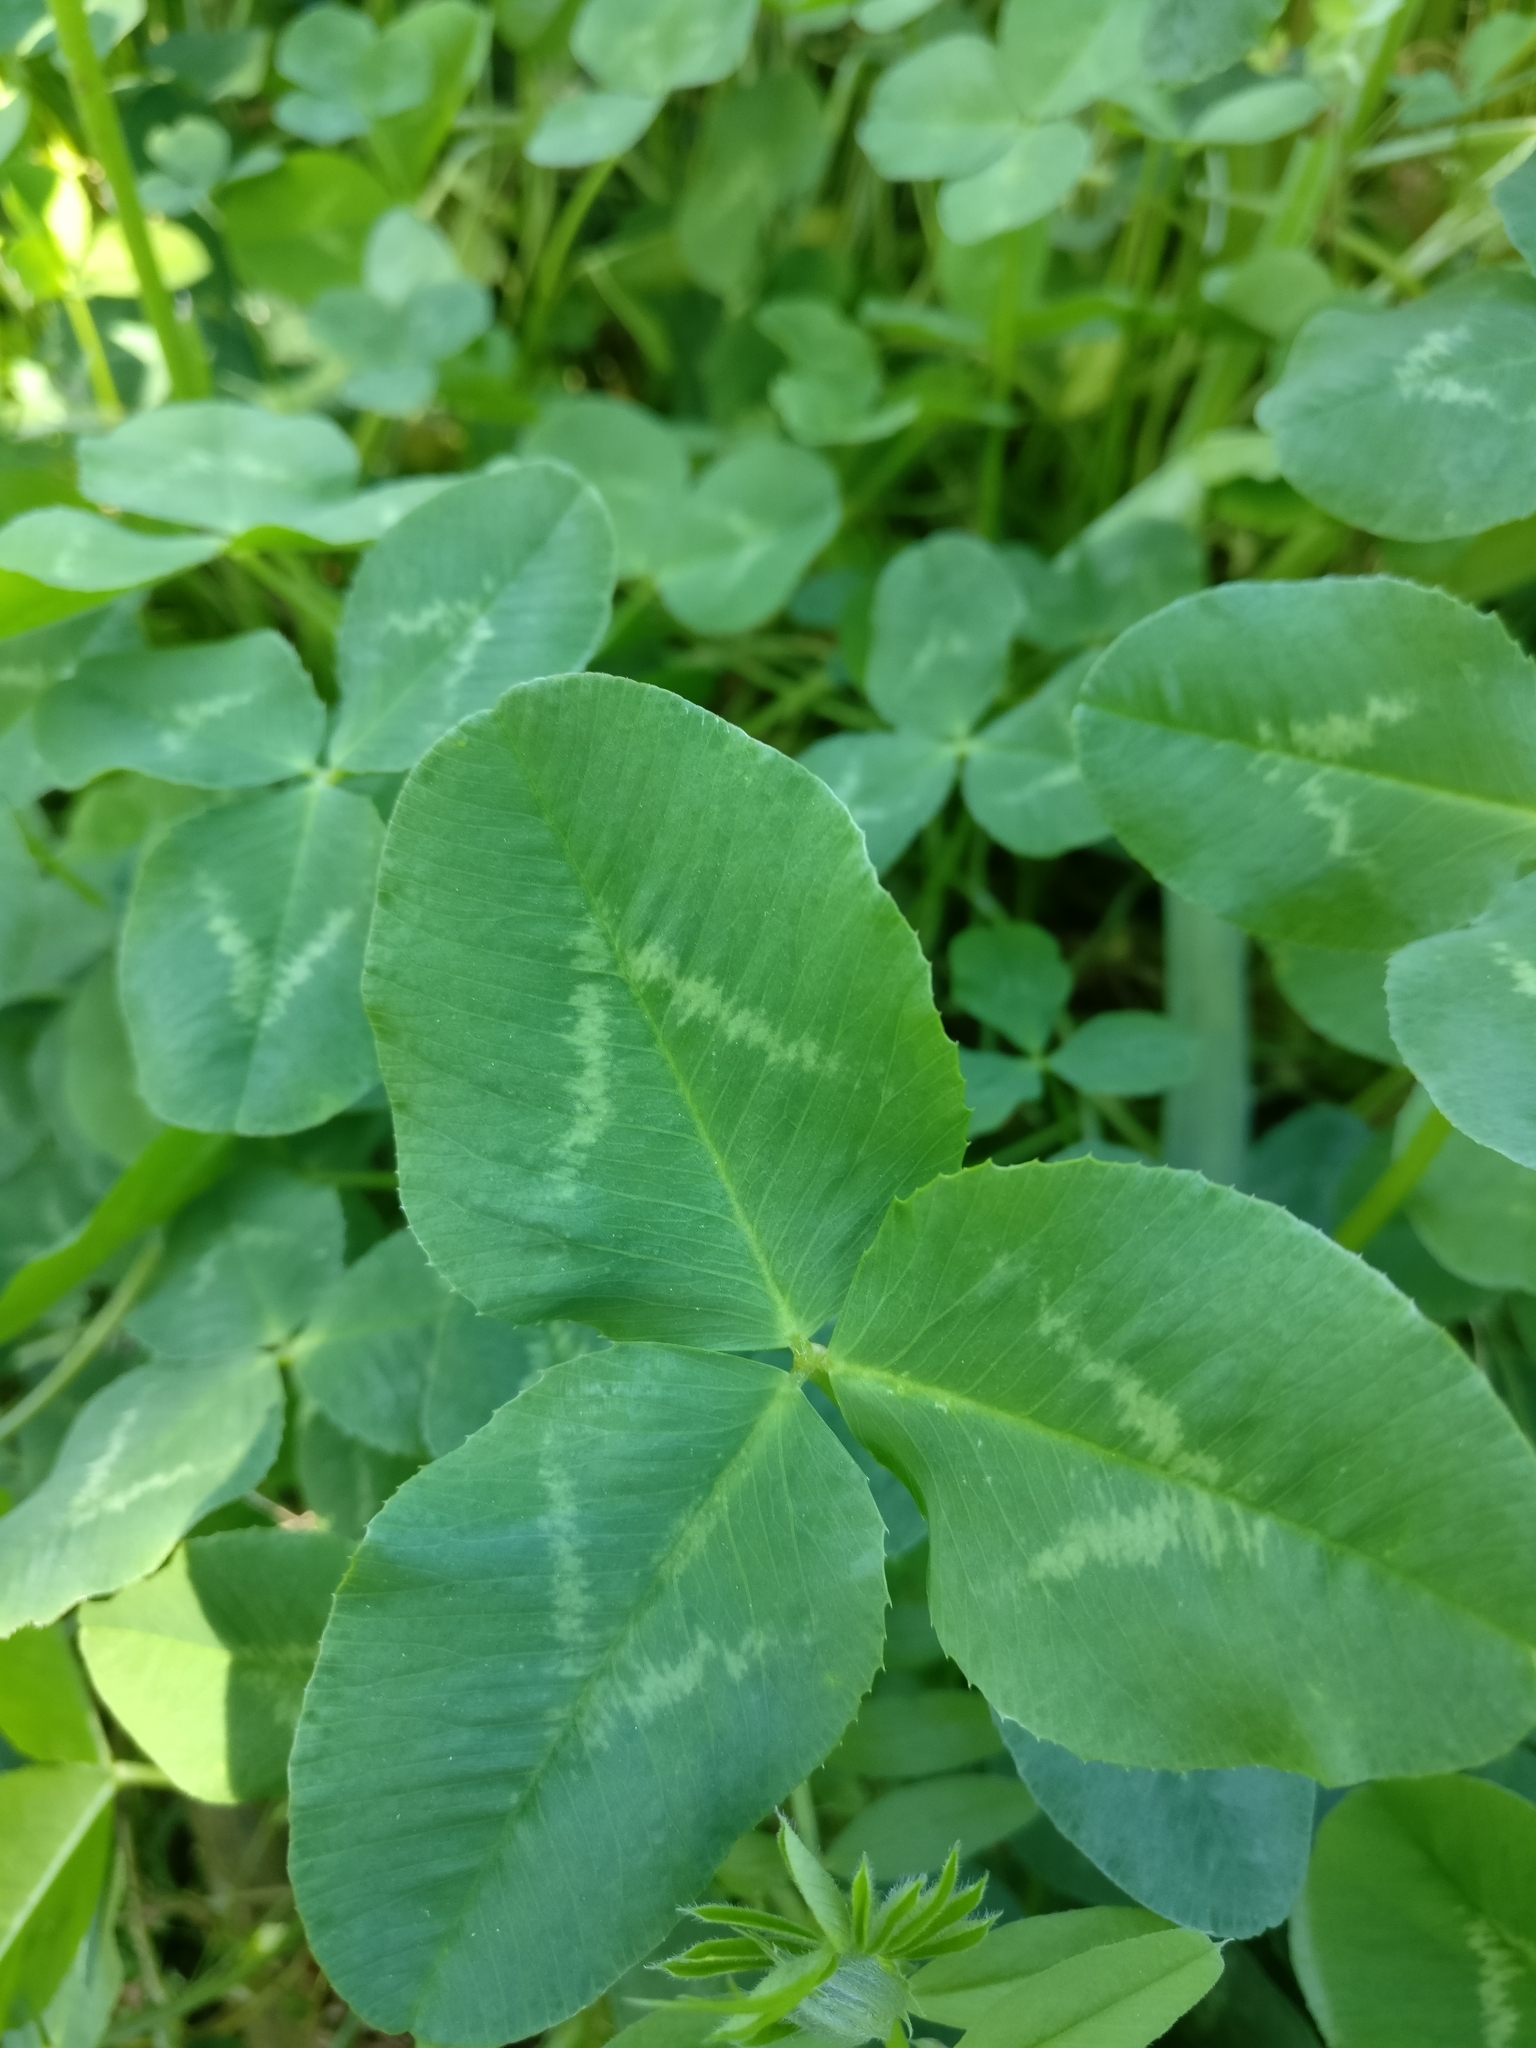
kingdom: Plantae
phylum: Tracheophyta
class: Magnoliopsida
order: Fabales
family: Fabaceae
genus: Trifolium
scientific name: Trifolium repens
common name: White clover
